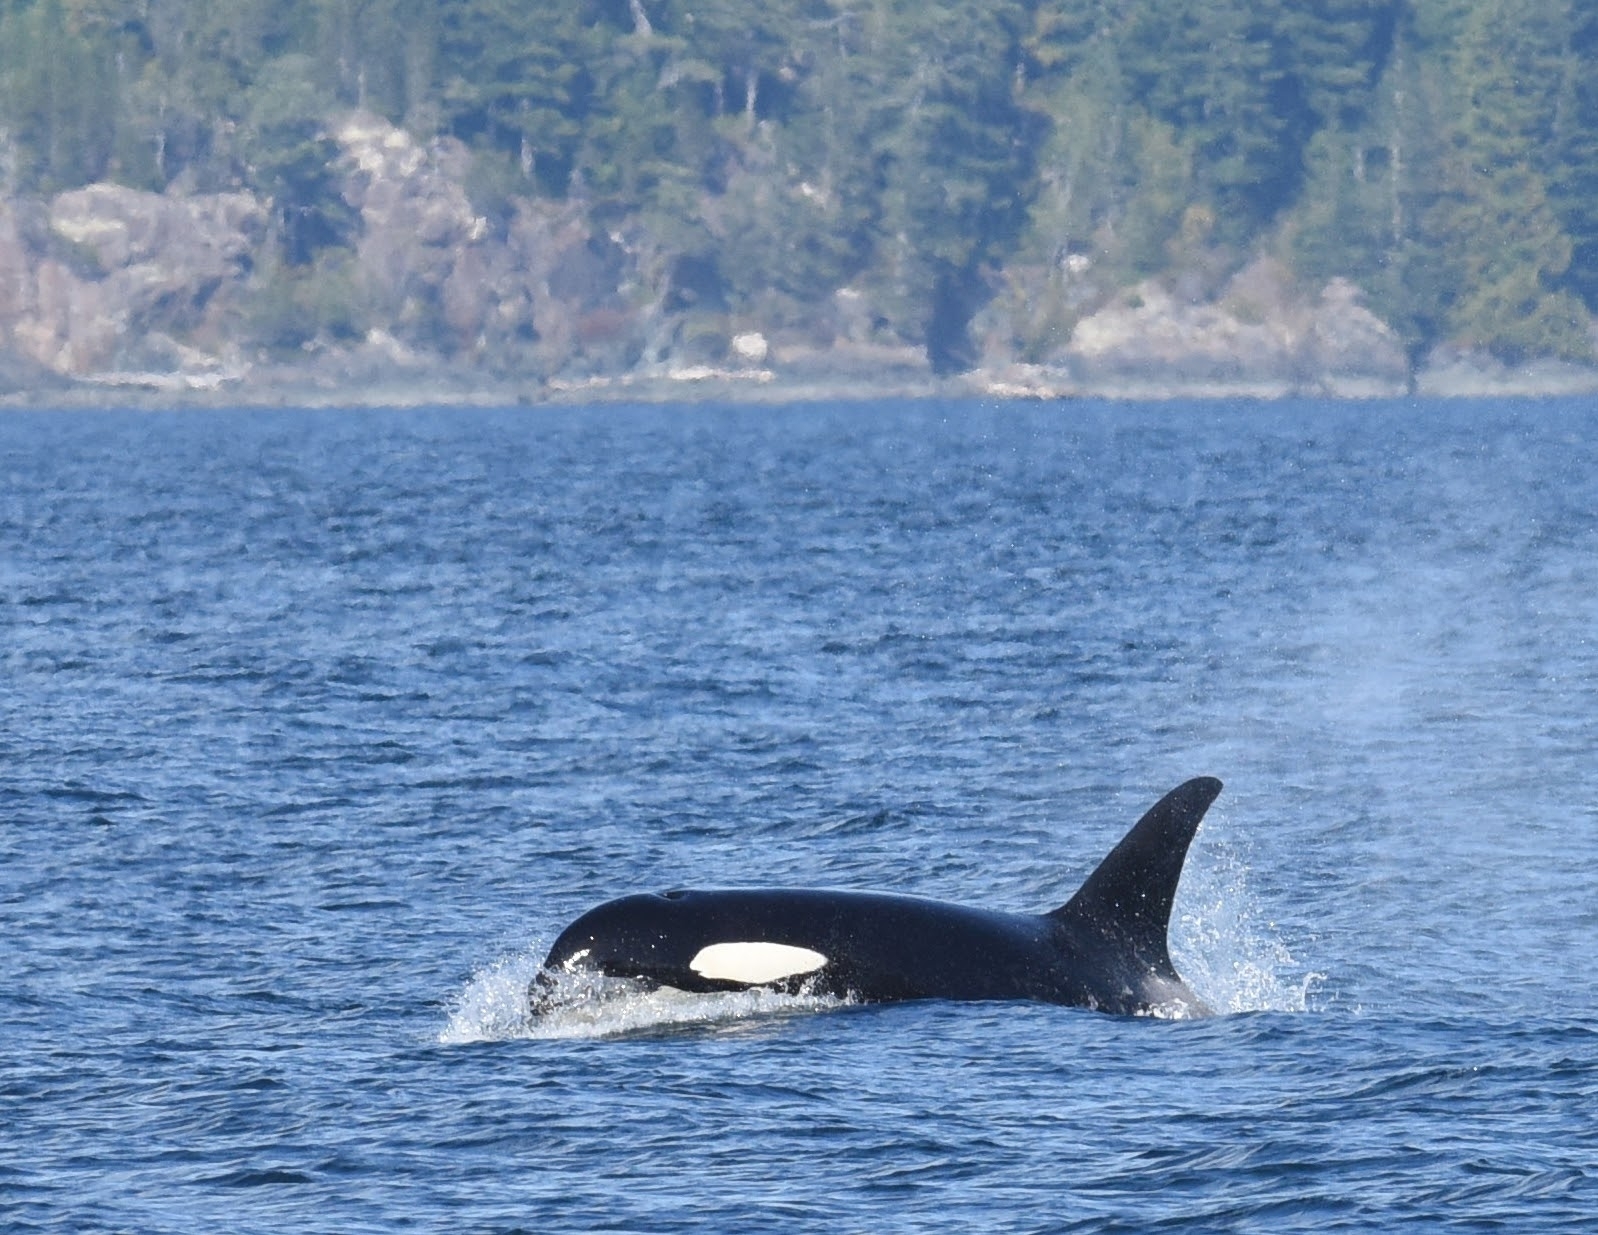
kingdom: Animalia
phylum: Chordata
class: Mammalia
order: Cetacea
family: Delphinidae
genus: Orcinus
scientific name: Orcinus orca
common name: Killer whale
